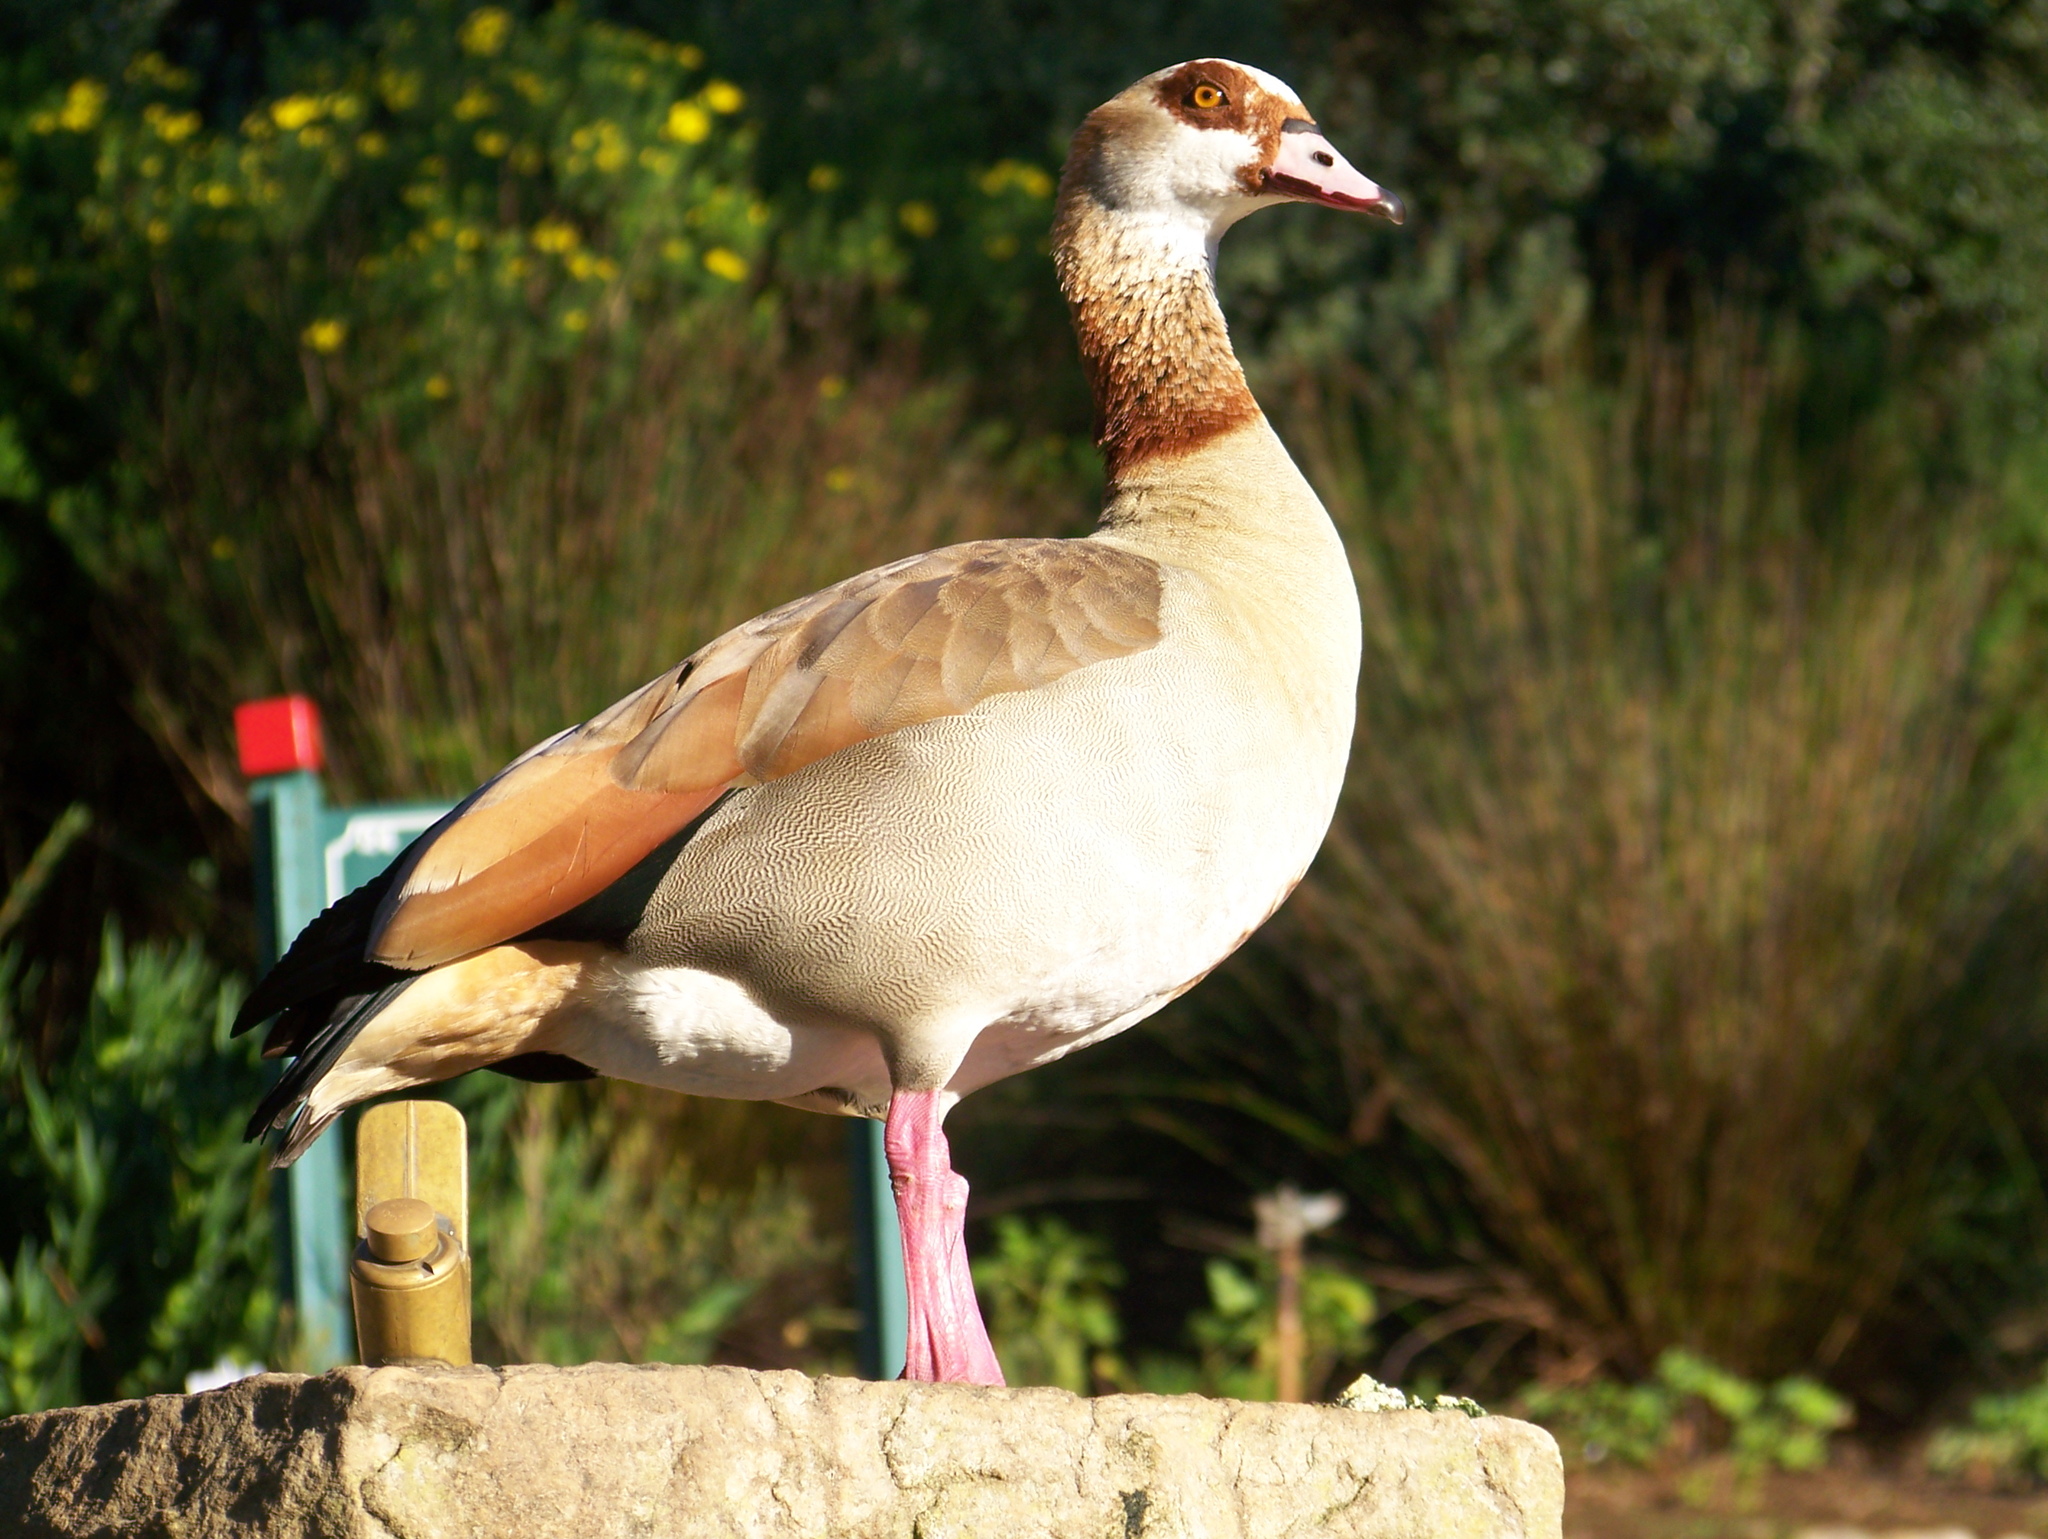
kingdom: Animalia
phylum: Chordata
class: Aves
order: Anseriformes
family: Anatidae
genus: Alopochen
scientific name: Alopochen aegyptiaca
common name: Egyptian goose
